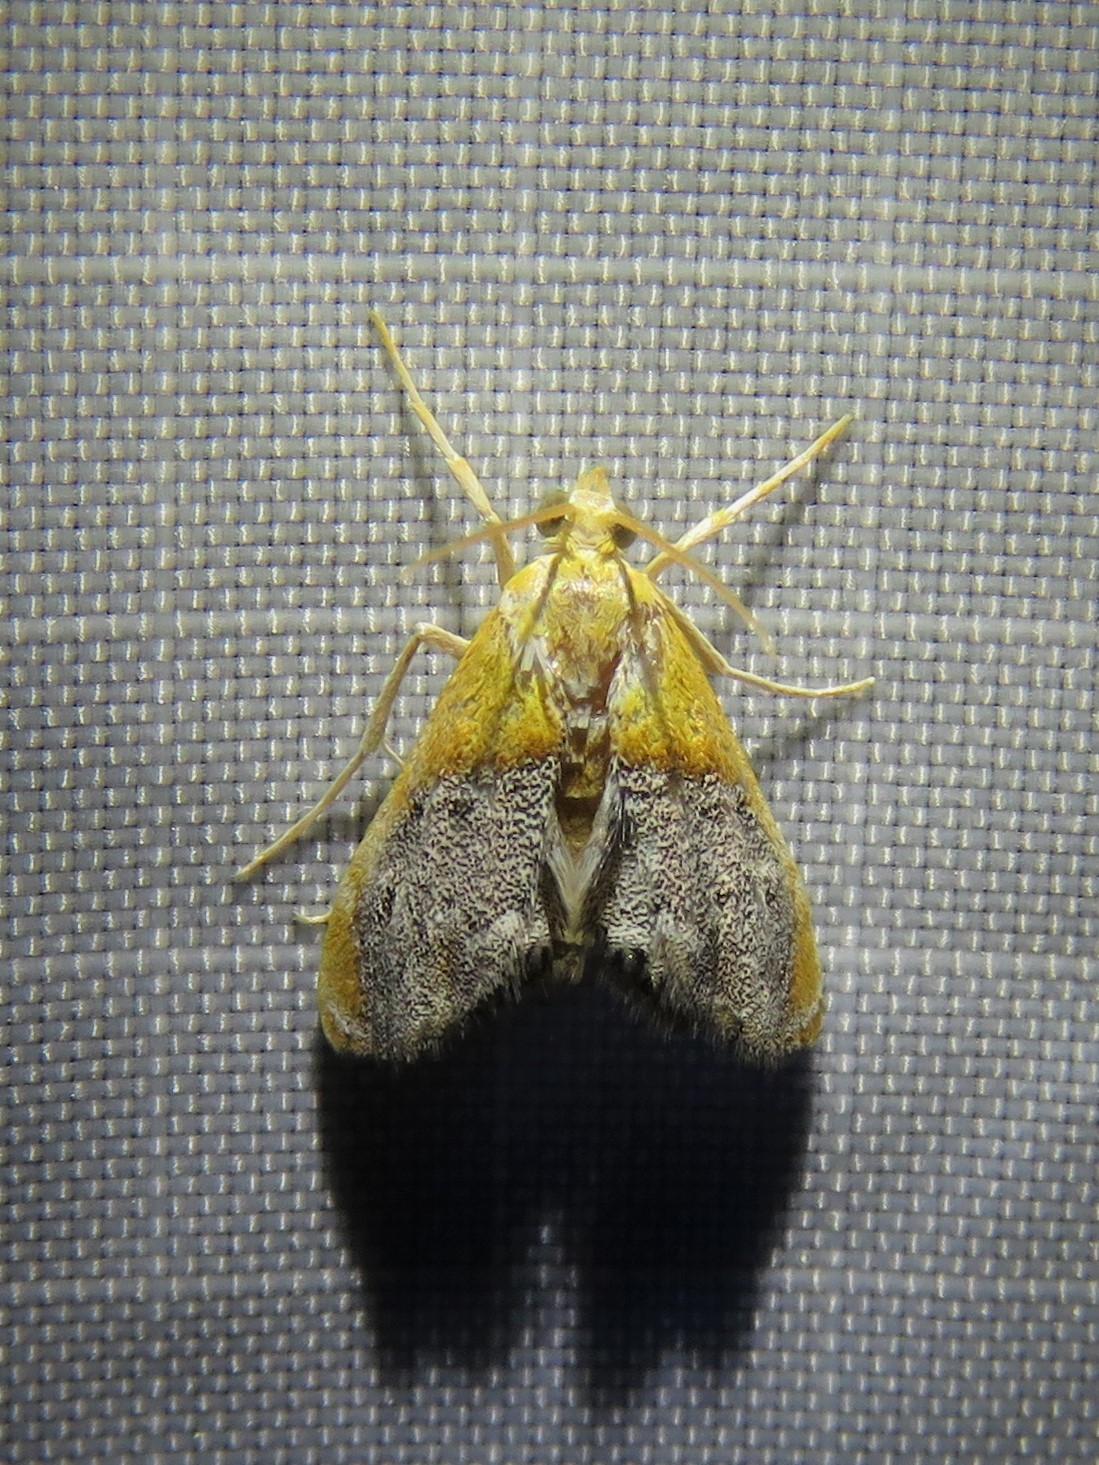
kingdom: Animalia
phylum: Arthropoda
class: Insecta
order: Lepidoptera
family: Crambidae
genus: Chalcoela
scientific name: Chalcoela iphitalis
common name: Sooty-winged chalcoela moth
